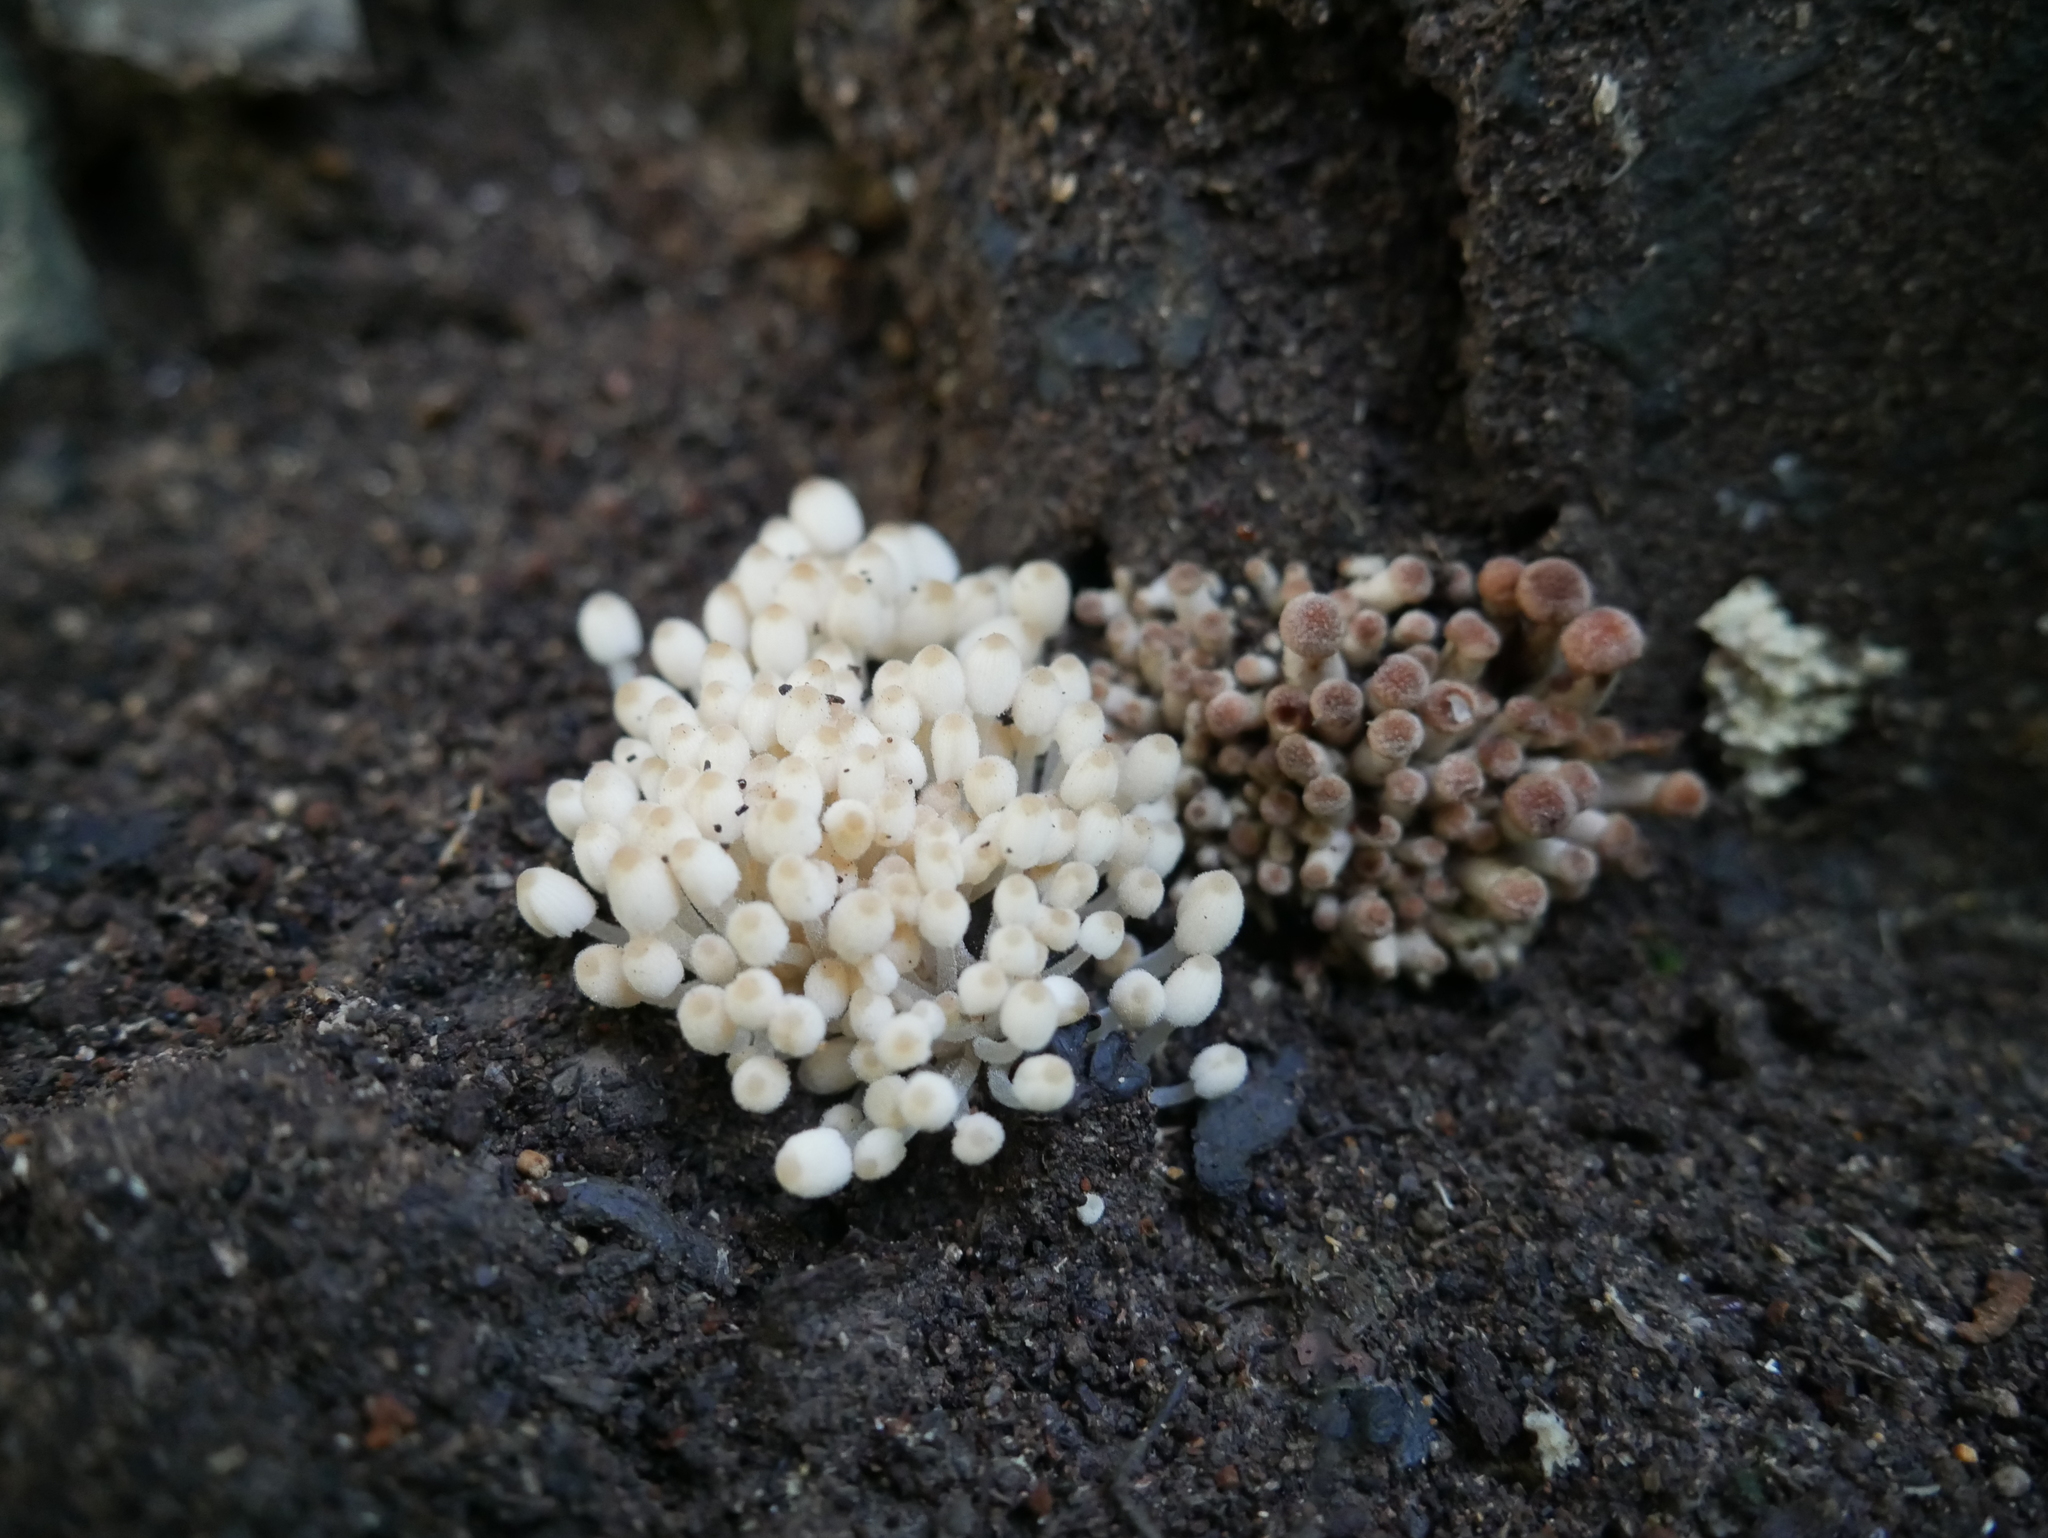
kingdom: Fungi
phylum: Basidiomycota
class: Agaricomycetes
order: Agaricales
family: Psathyrellaceae
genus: Coprinellus
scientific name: Coprinellus disseminatus
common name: Fairies' bonnets
